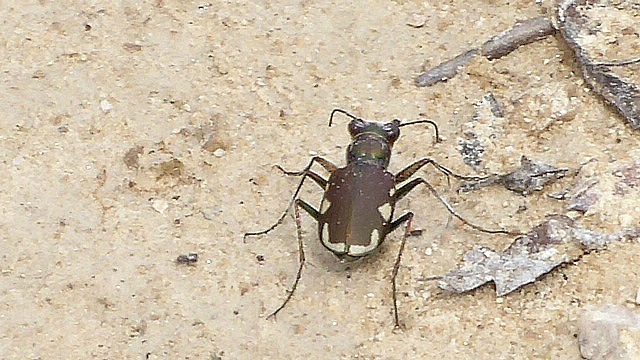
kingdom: Animalia
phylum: Arthropoda
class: Insecta
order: Coleoptera
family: Carabidae
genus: Cicindela
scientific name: Cicindela scutellaris
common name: Festive tiger beetle
